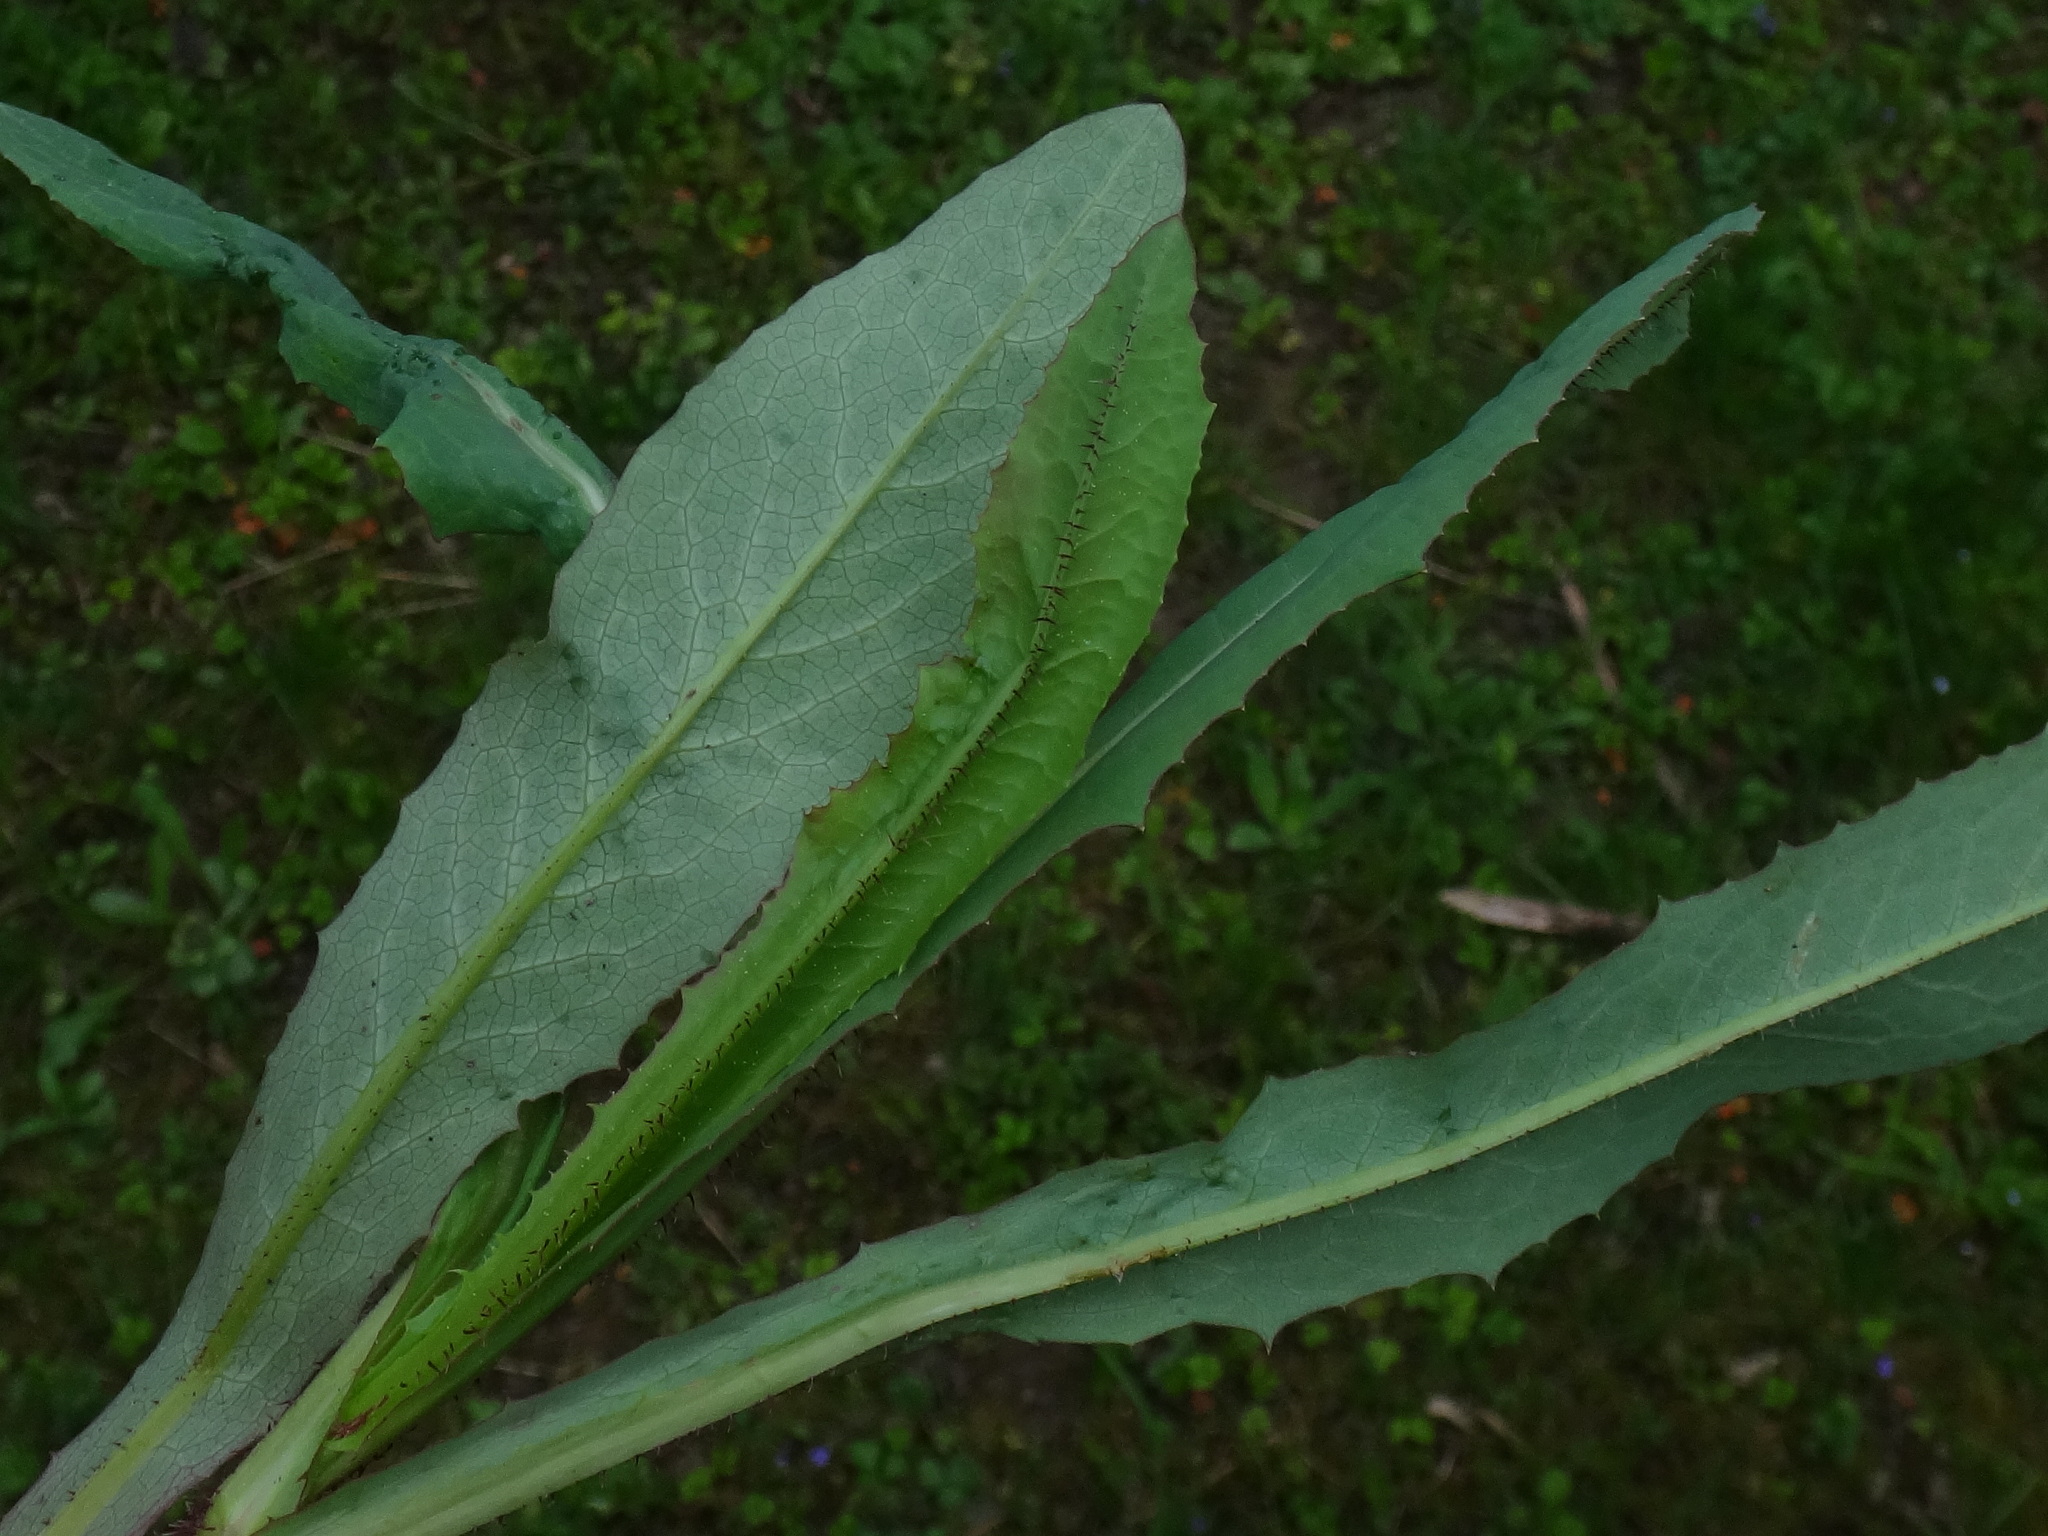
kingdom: Plantae
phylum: Tracheophyta
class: Magnoliopsida
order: Asterales
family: Asteraceae
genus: Lactuca
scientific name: Lactuca serriola
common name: Prickly lettuce
